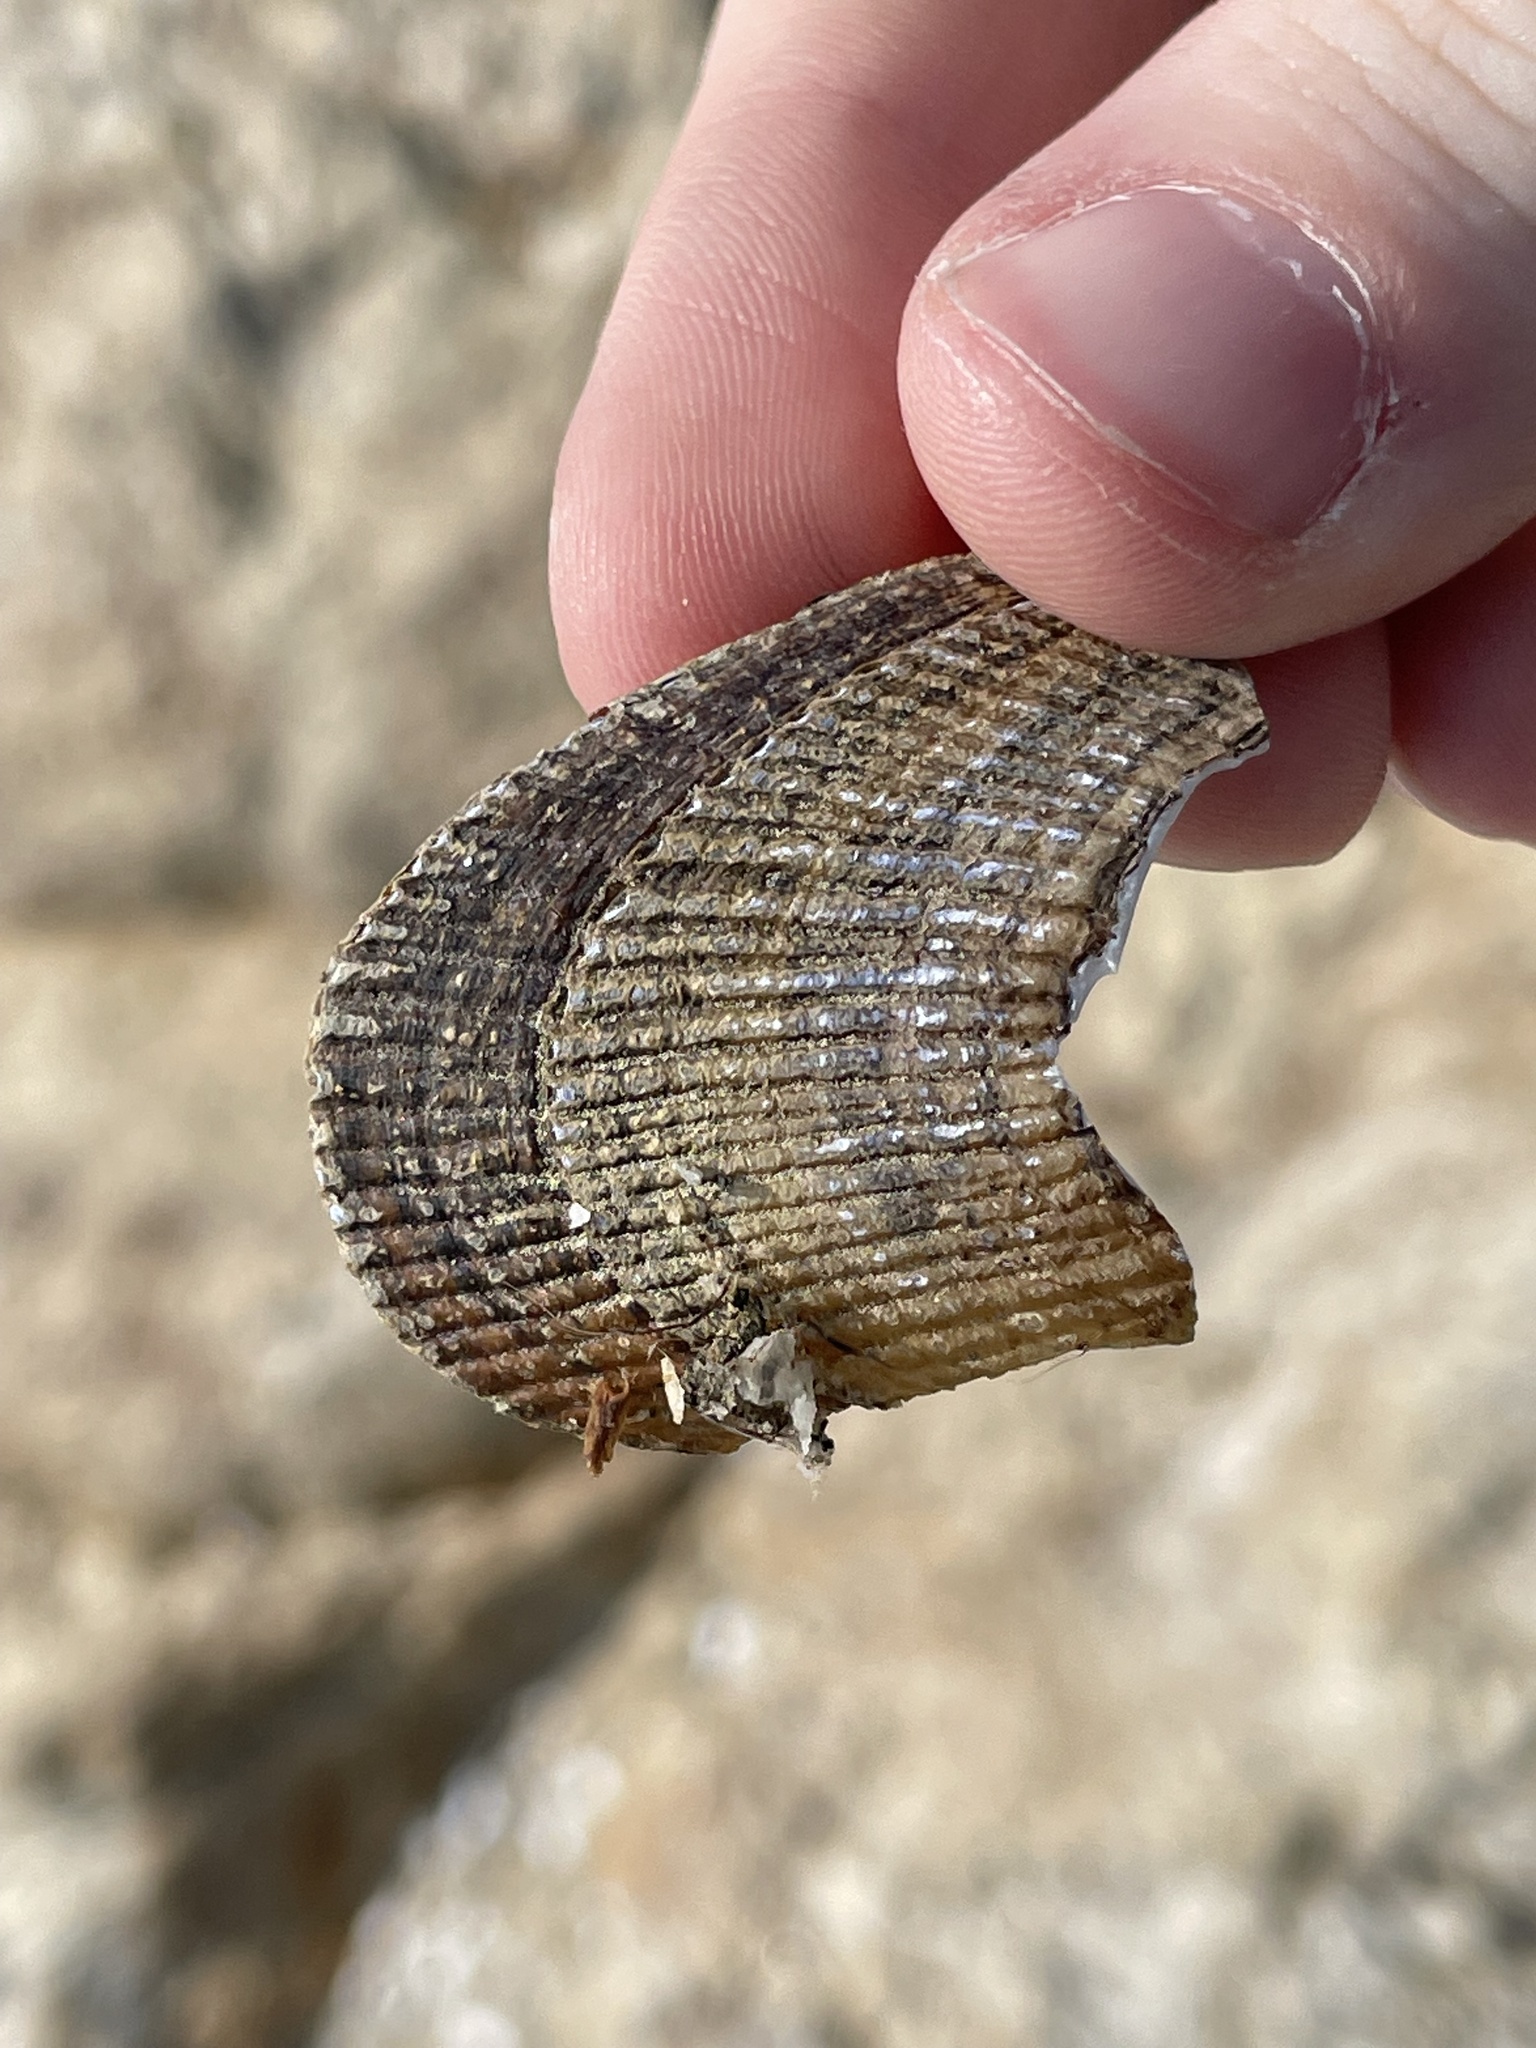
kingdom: Animalia
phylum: Mollusca
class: Bivalvia
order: Mytilida
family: Mytilidae
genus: Geukensia
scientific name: Geukensia demissa
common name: Ribbed mussel
